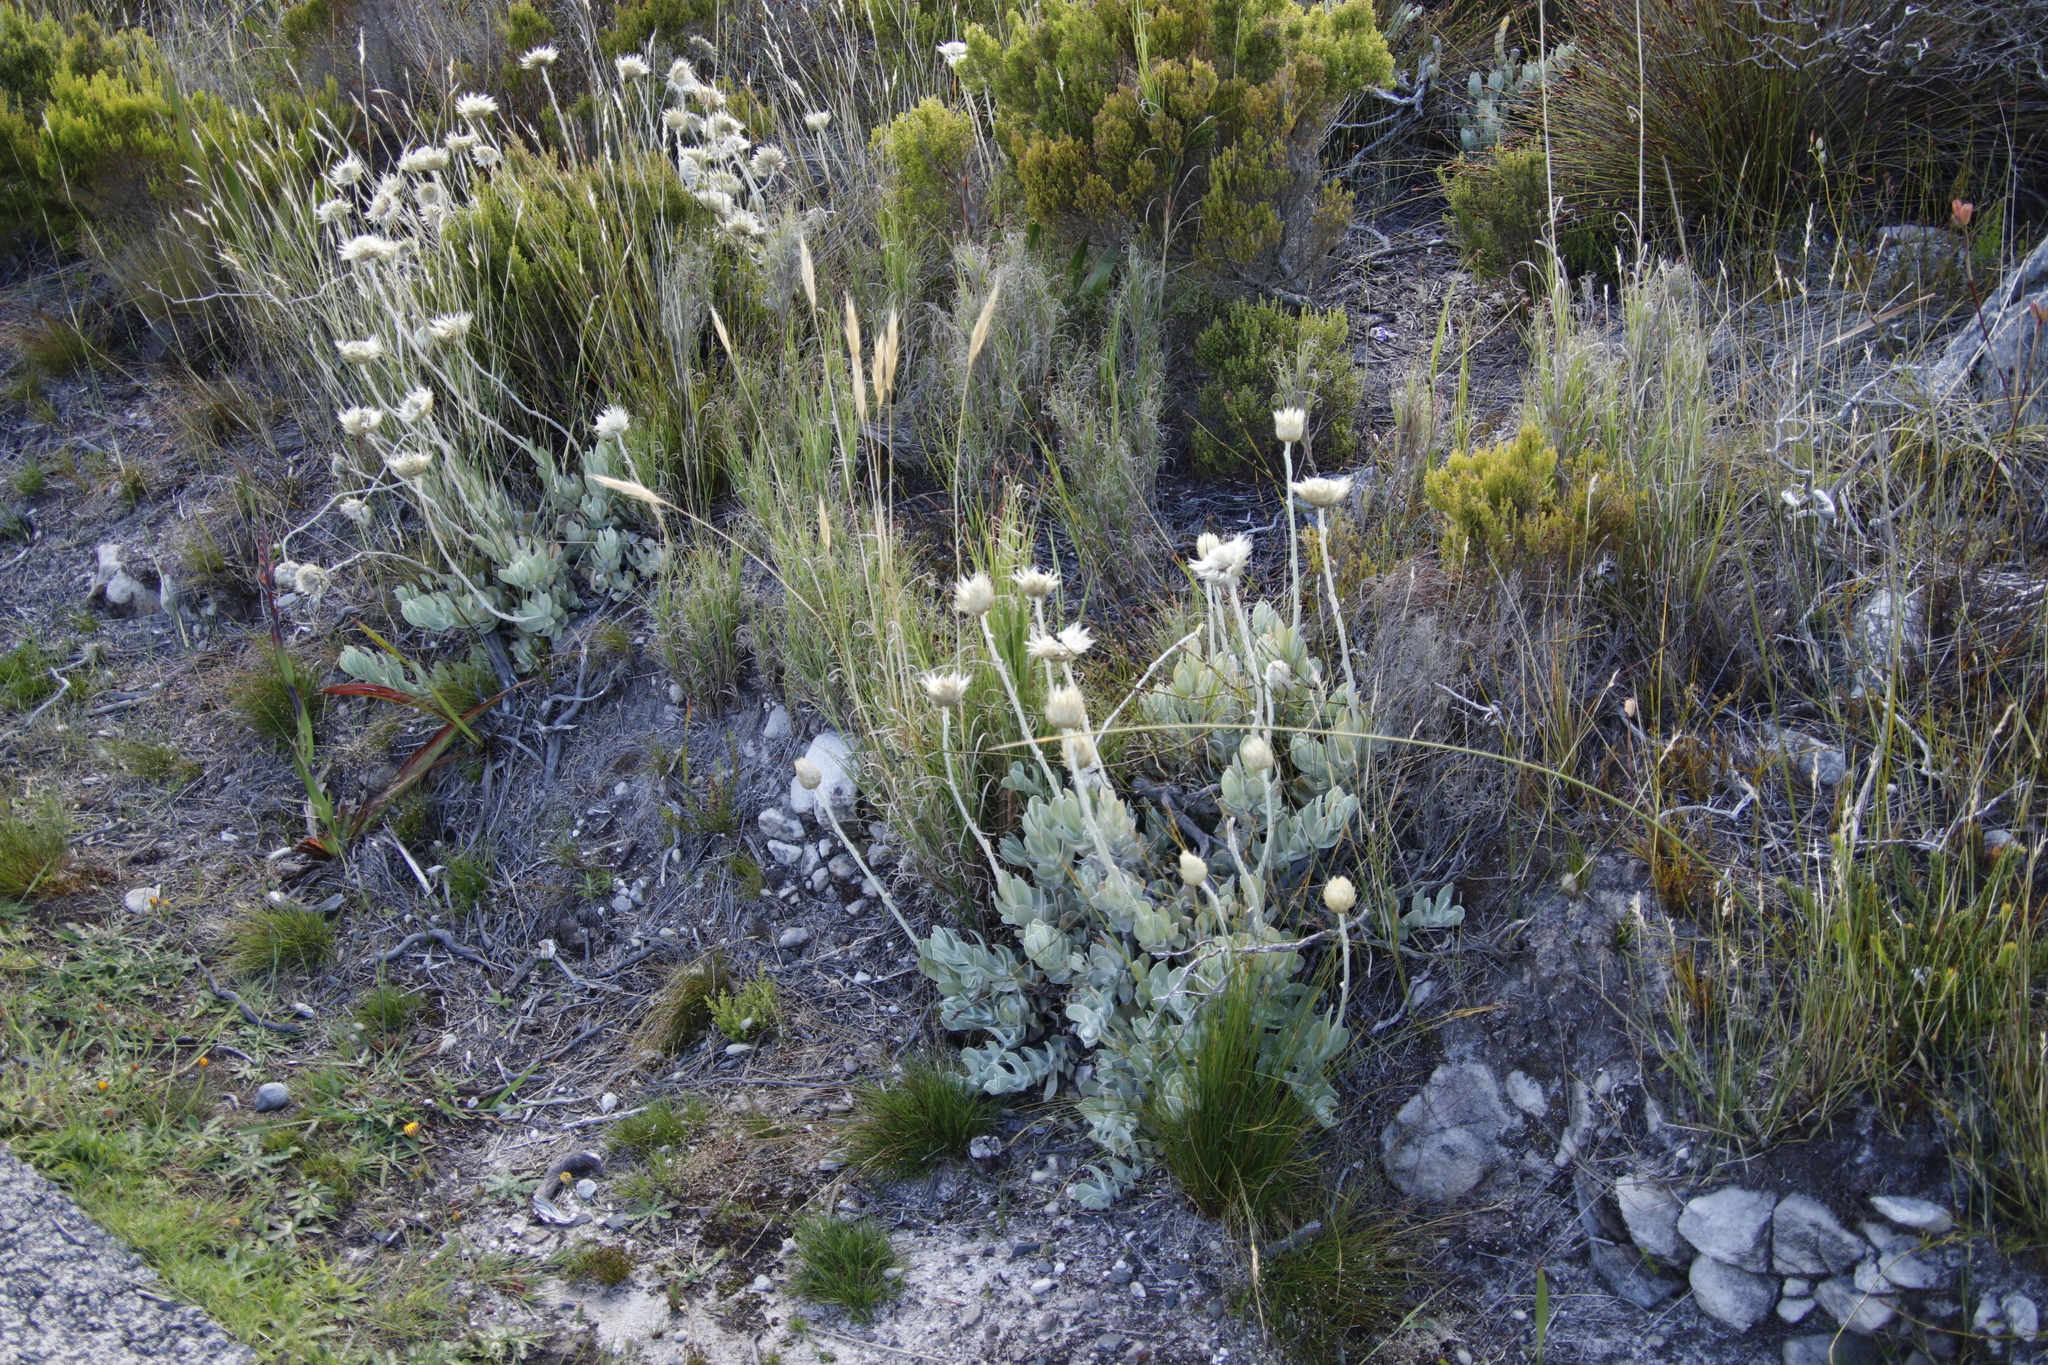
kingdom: Plantae
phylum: Tracheophyta
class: Magnoliopsida
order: Asterales
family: Asteraceae
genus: Syncarpha
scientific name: Syncarpha speciosissima
